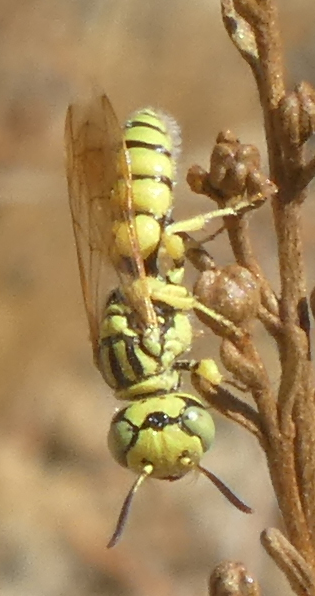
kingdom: Animalia
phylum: Arthropoda
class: Insecta
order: Hymenoptera
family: Crabronidae
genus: Philanthus
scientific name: Philanthus multimaculatus
